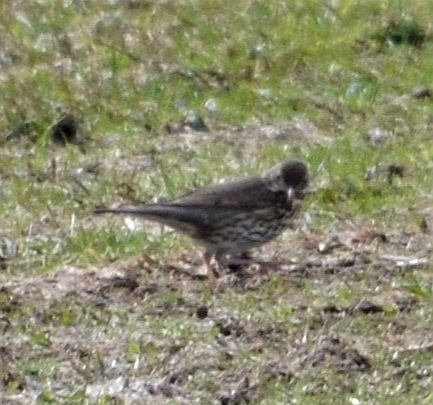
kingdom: Animalia
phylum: Chordata
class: Aves
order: Passeriformes
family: Turdidae
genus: Turdus
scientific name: Turdus philomelos
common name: Song thrush
